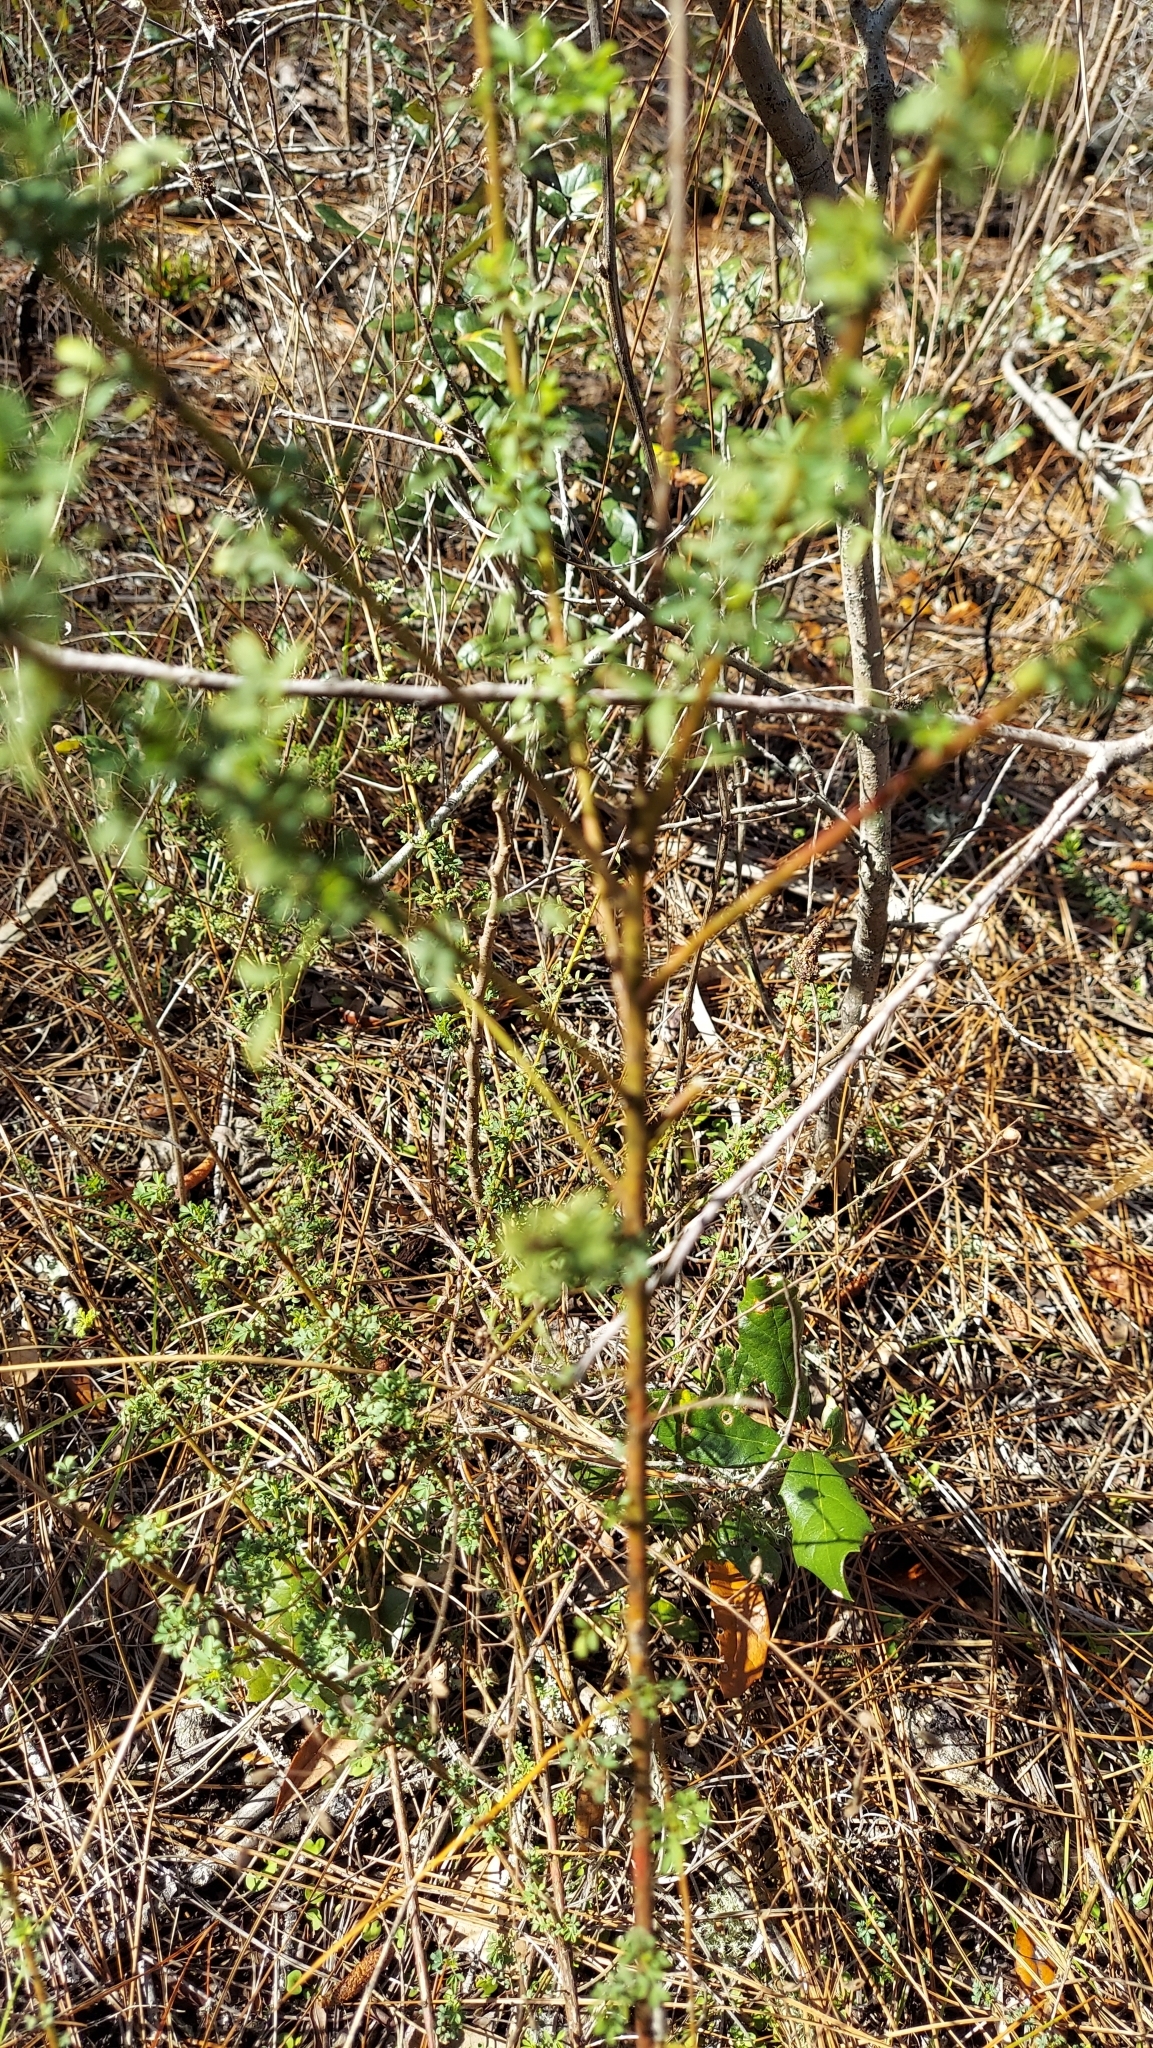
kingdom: Plantae
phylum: Tracheophyta
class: Magnoliopsida
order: Fabales
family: Fabaceae
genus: Dalea
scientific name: Dalea carnea
